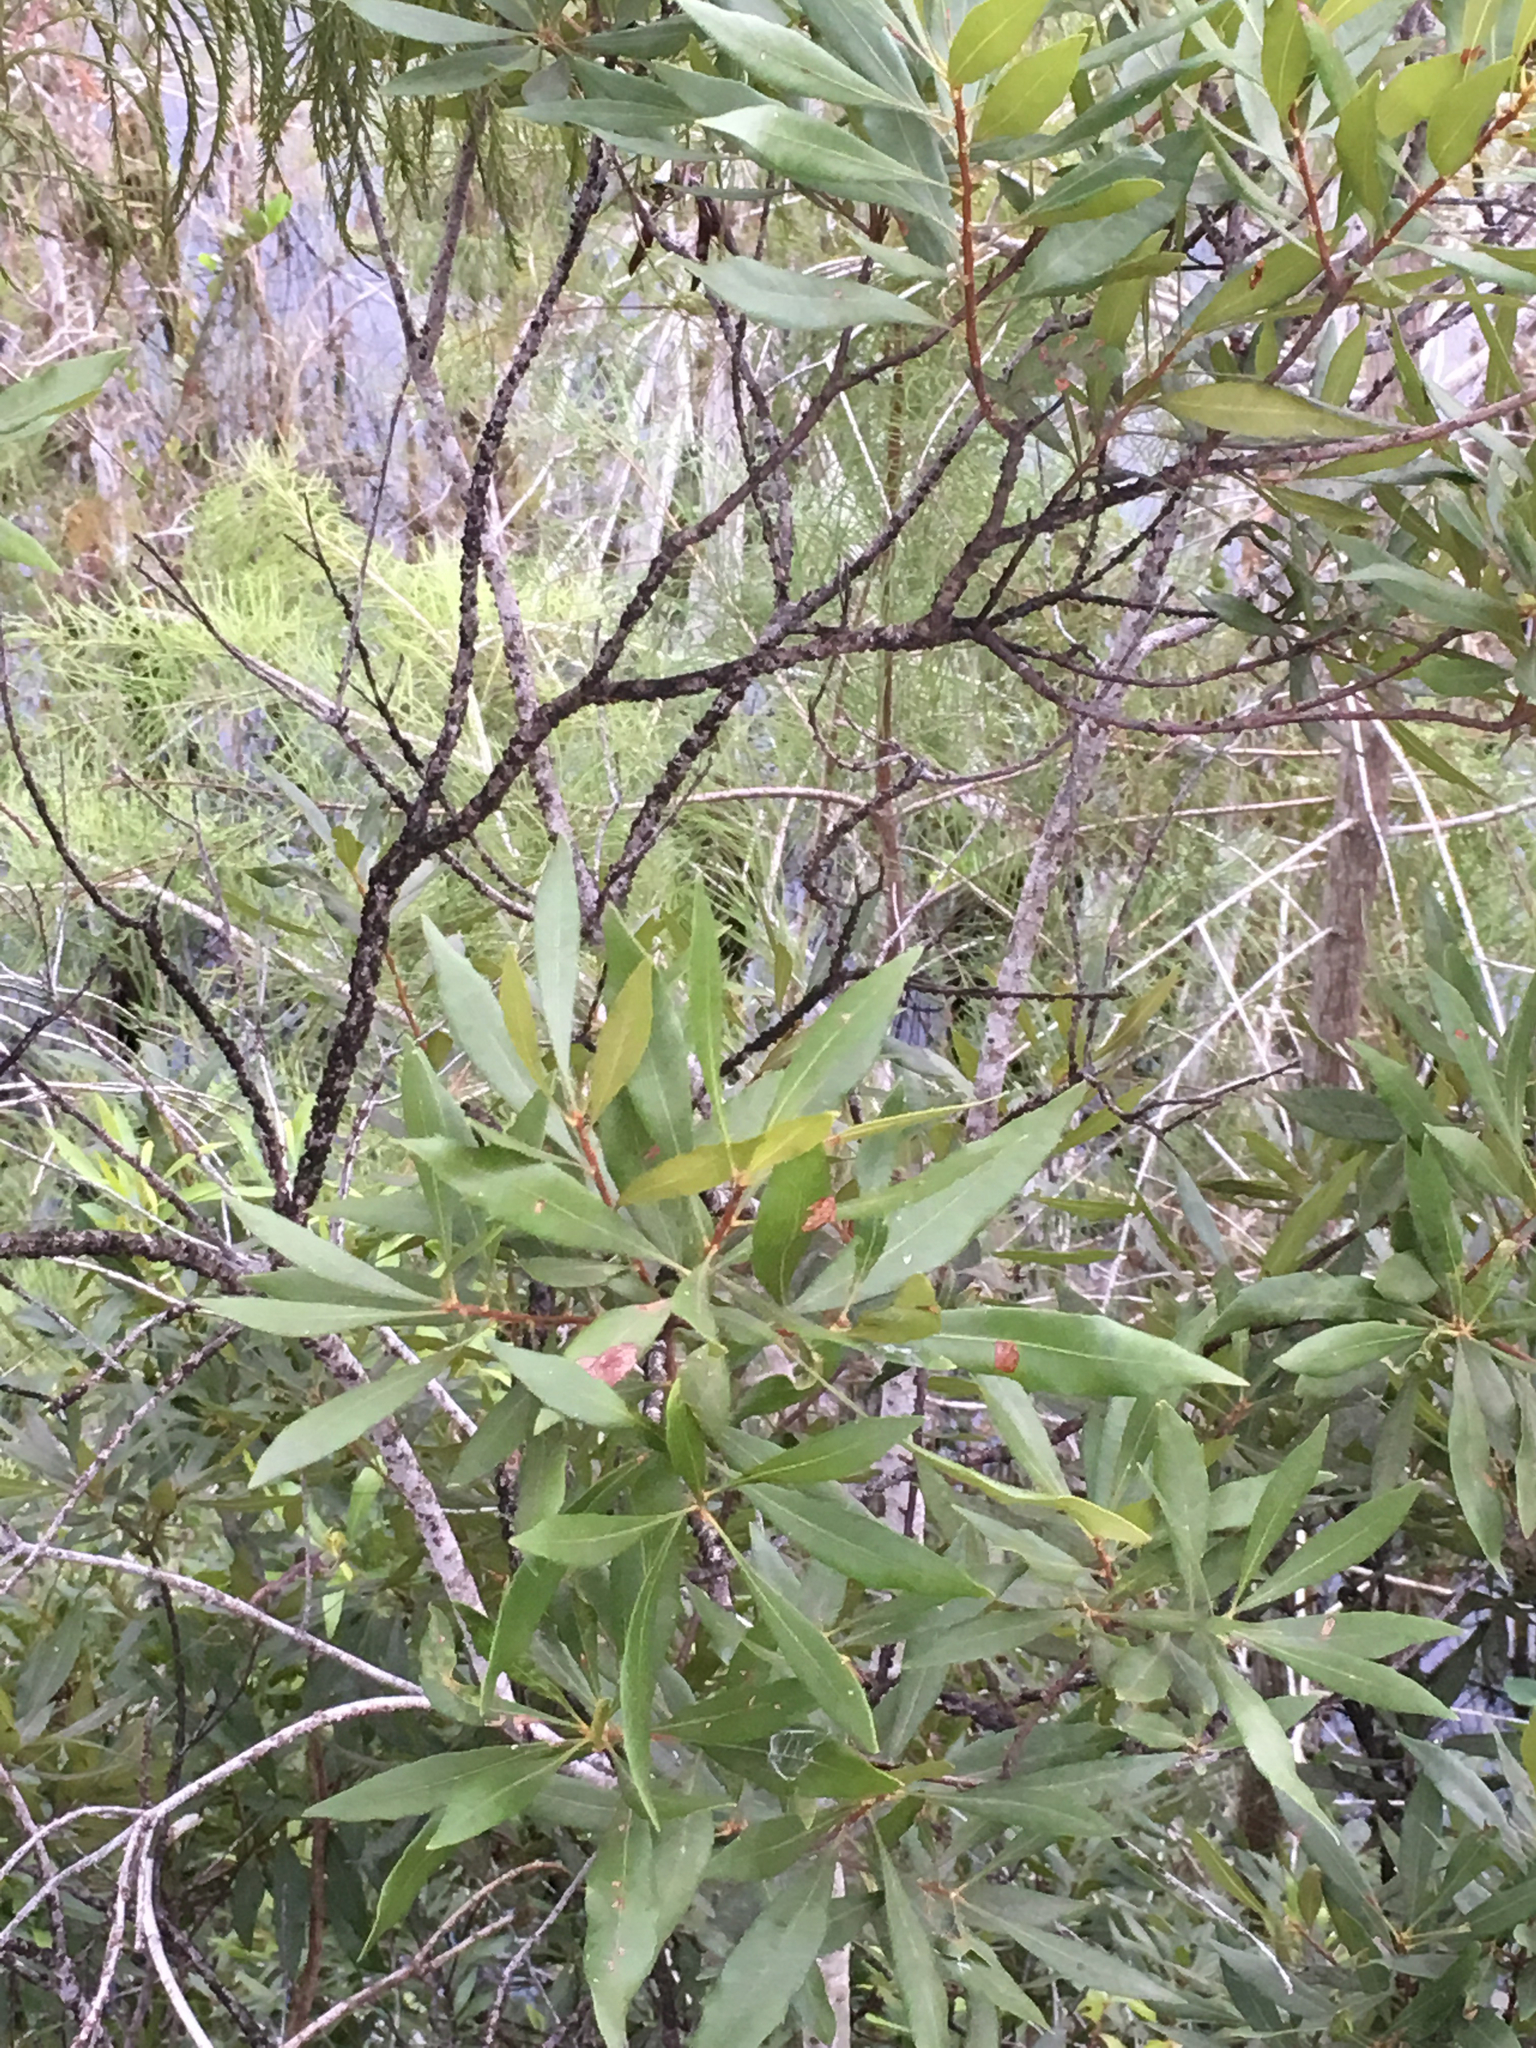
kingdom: Plantae
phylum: Tracheophyta
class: Magnoliopsida
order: Fagales
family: Myricaceae
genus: Morella
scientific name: Morella cerifera
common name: Wax myrtle
